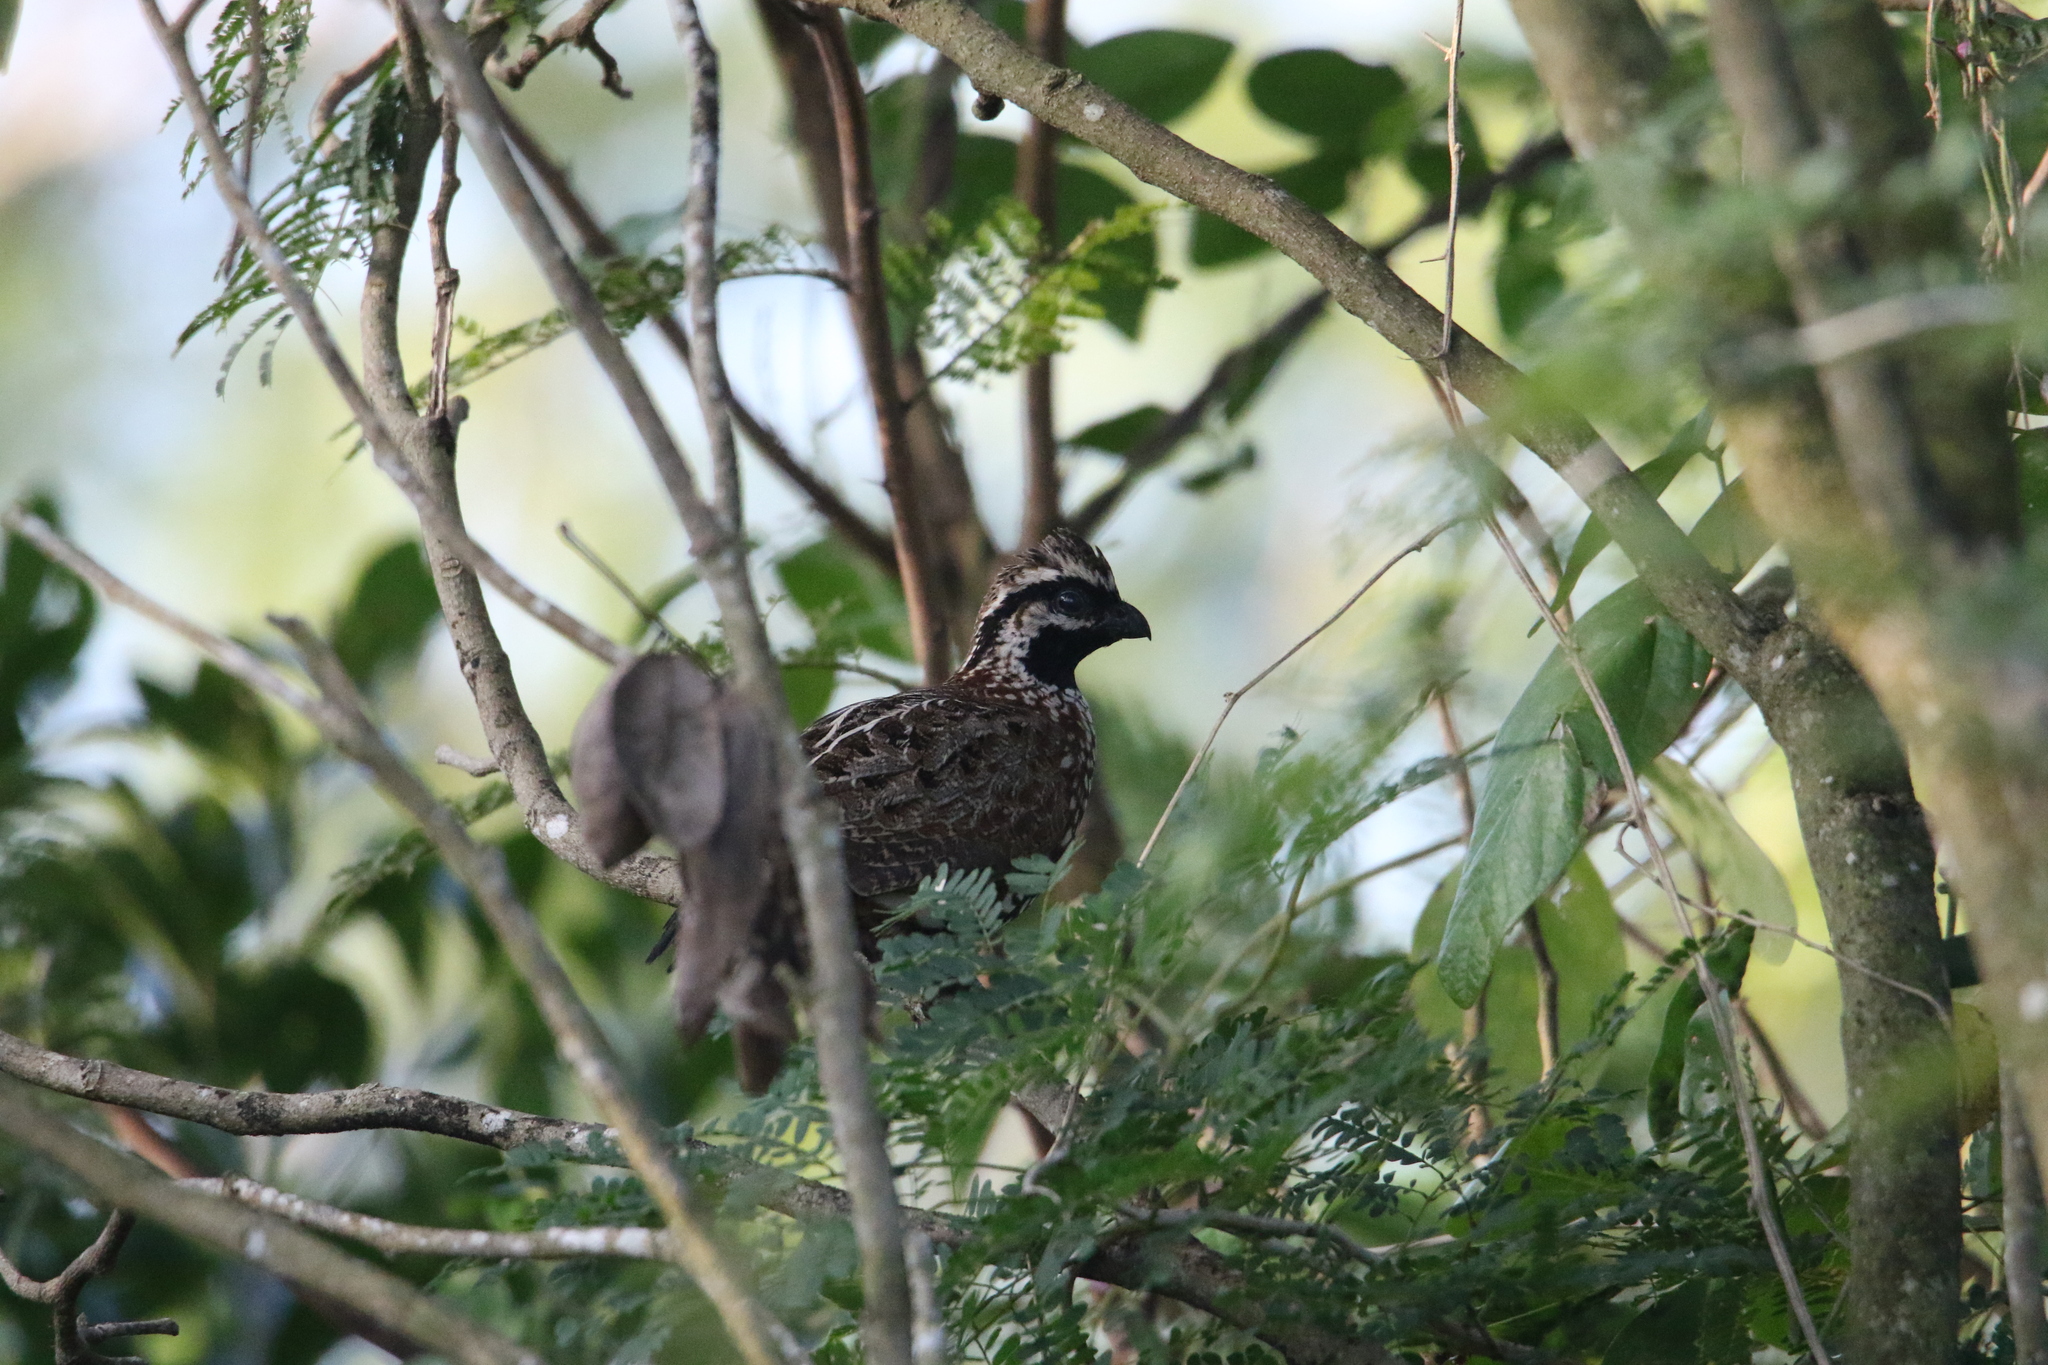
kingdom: Animalia
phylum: Chordata
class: Aves
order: Galliformes
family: Odontophoridae
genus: Colinus
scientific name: Colinus nigrogularis
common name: Yucatan bobwhite
